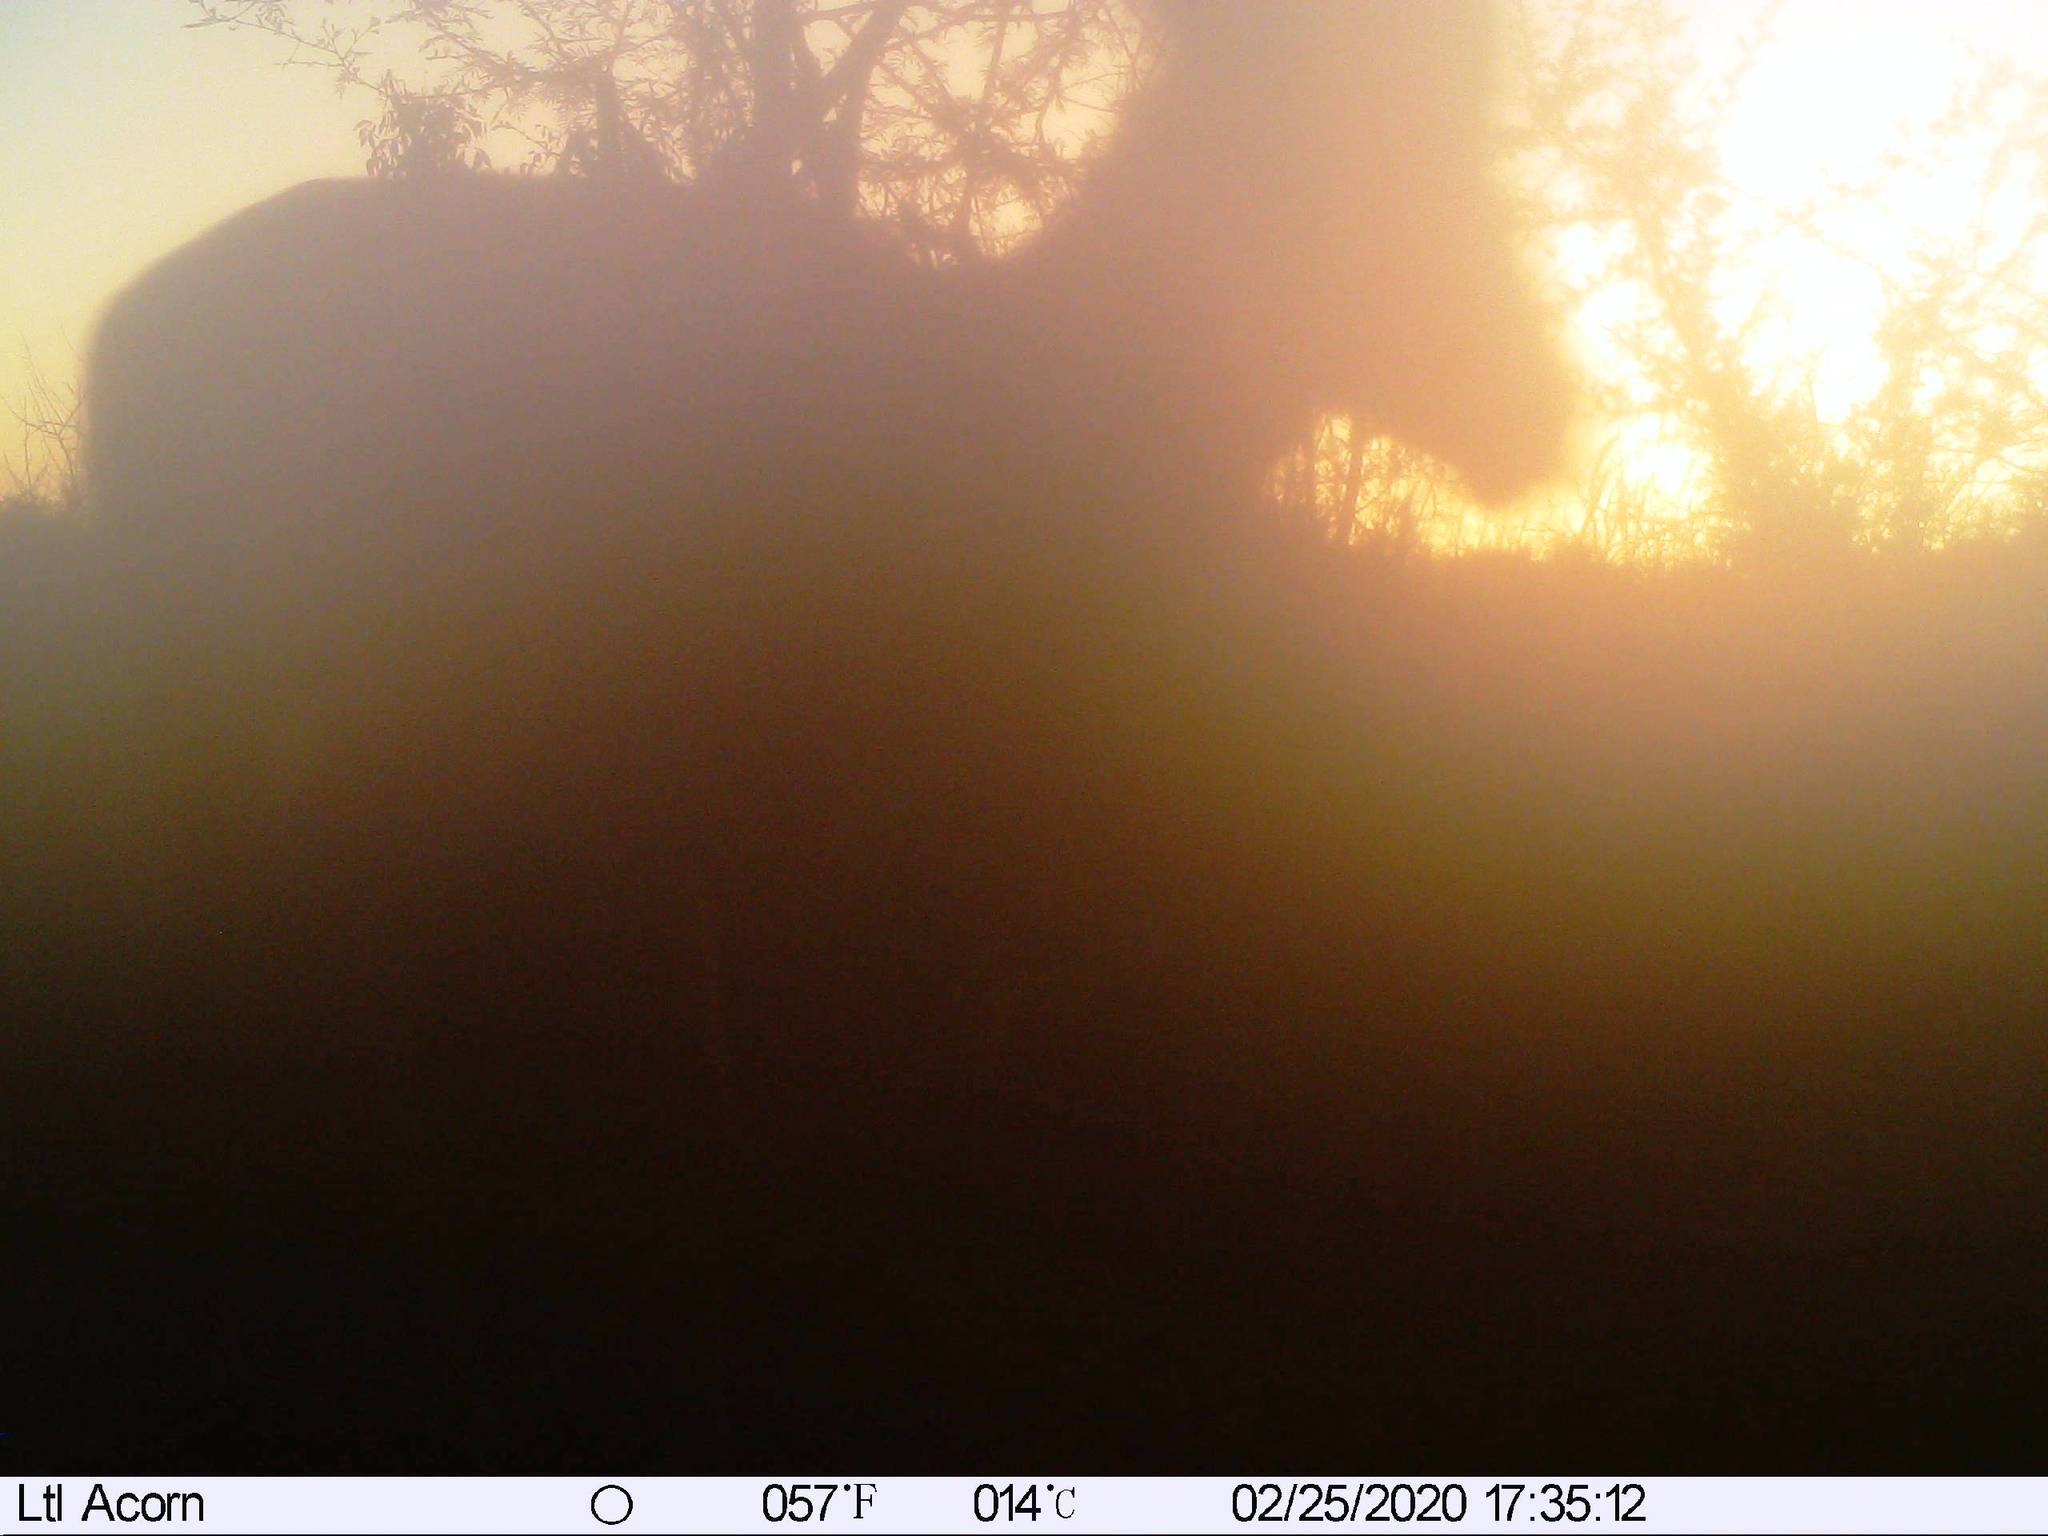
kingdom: Animalia
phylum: Chordata
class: Mammalia
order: Artiodactyla
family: Bovidae
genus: Aepyceros
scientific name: Aepyceros melampus
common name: Impala
